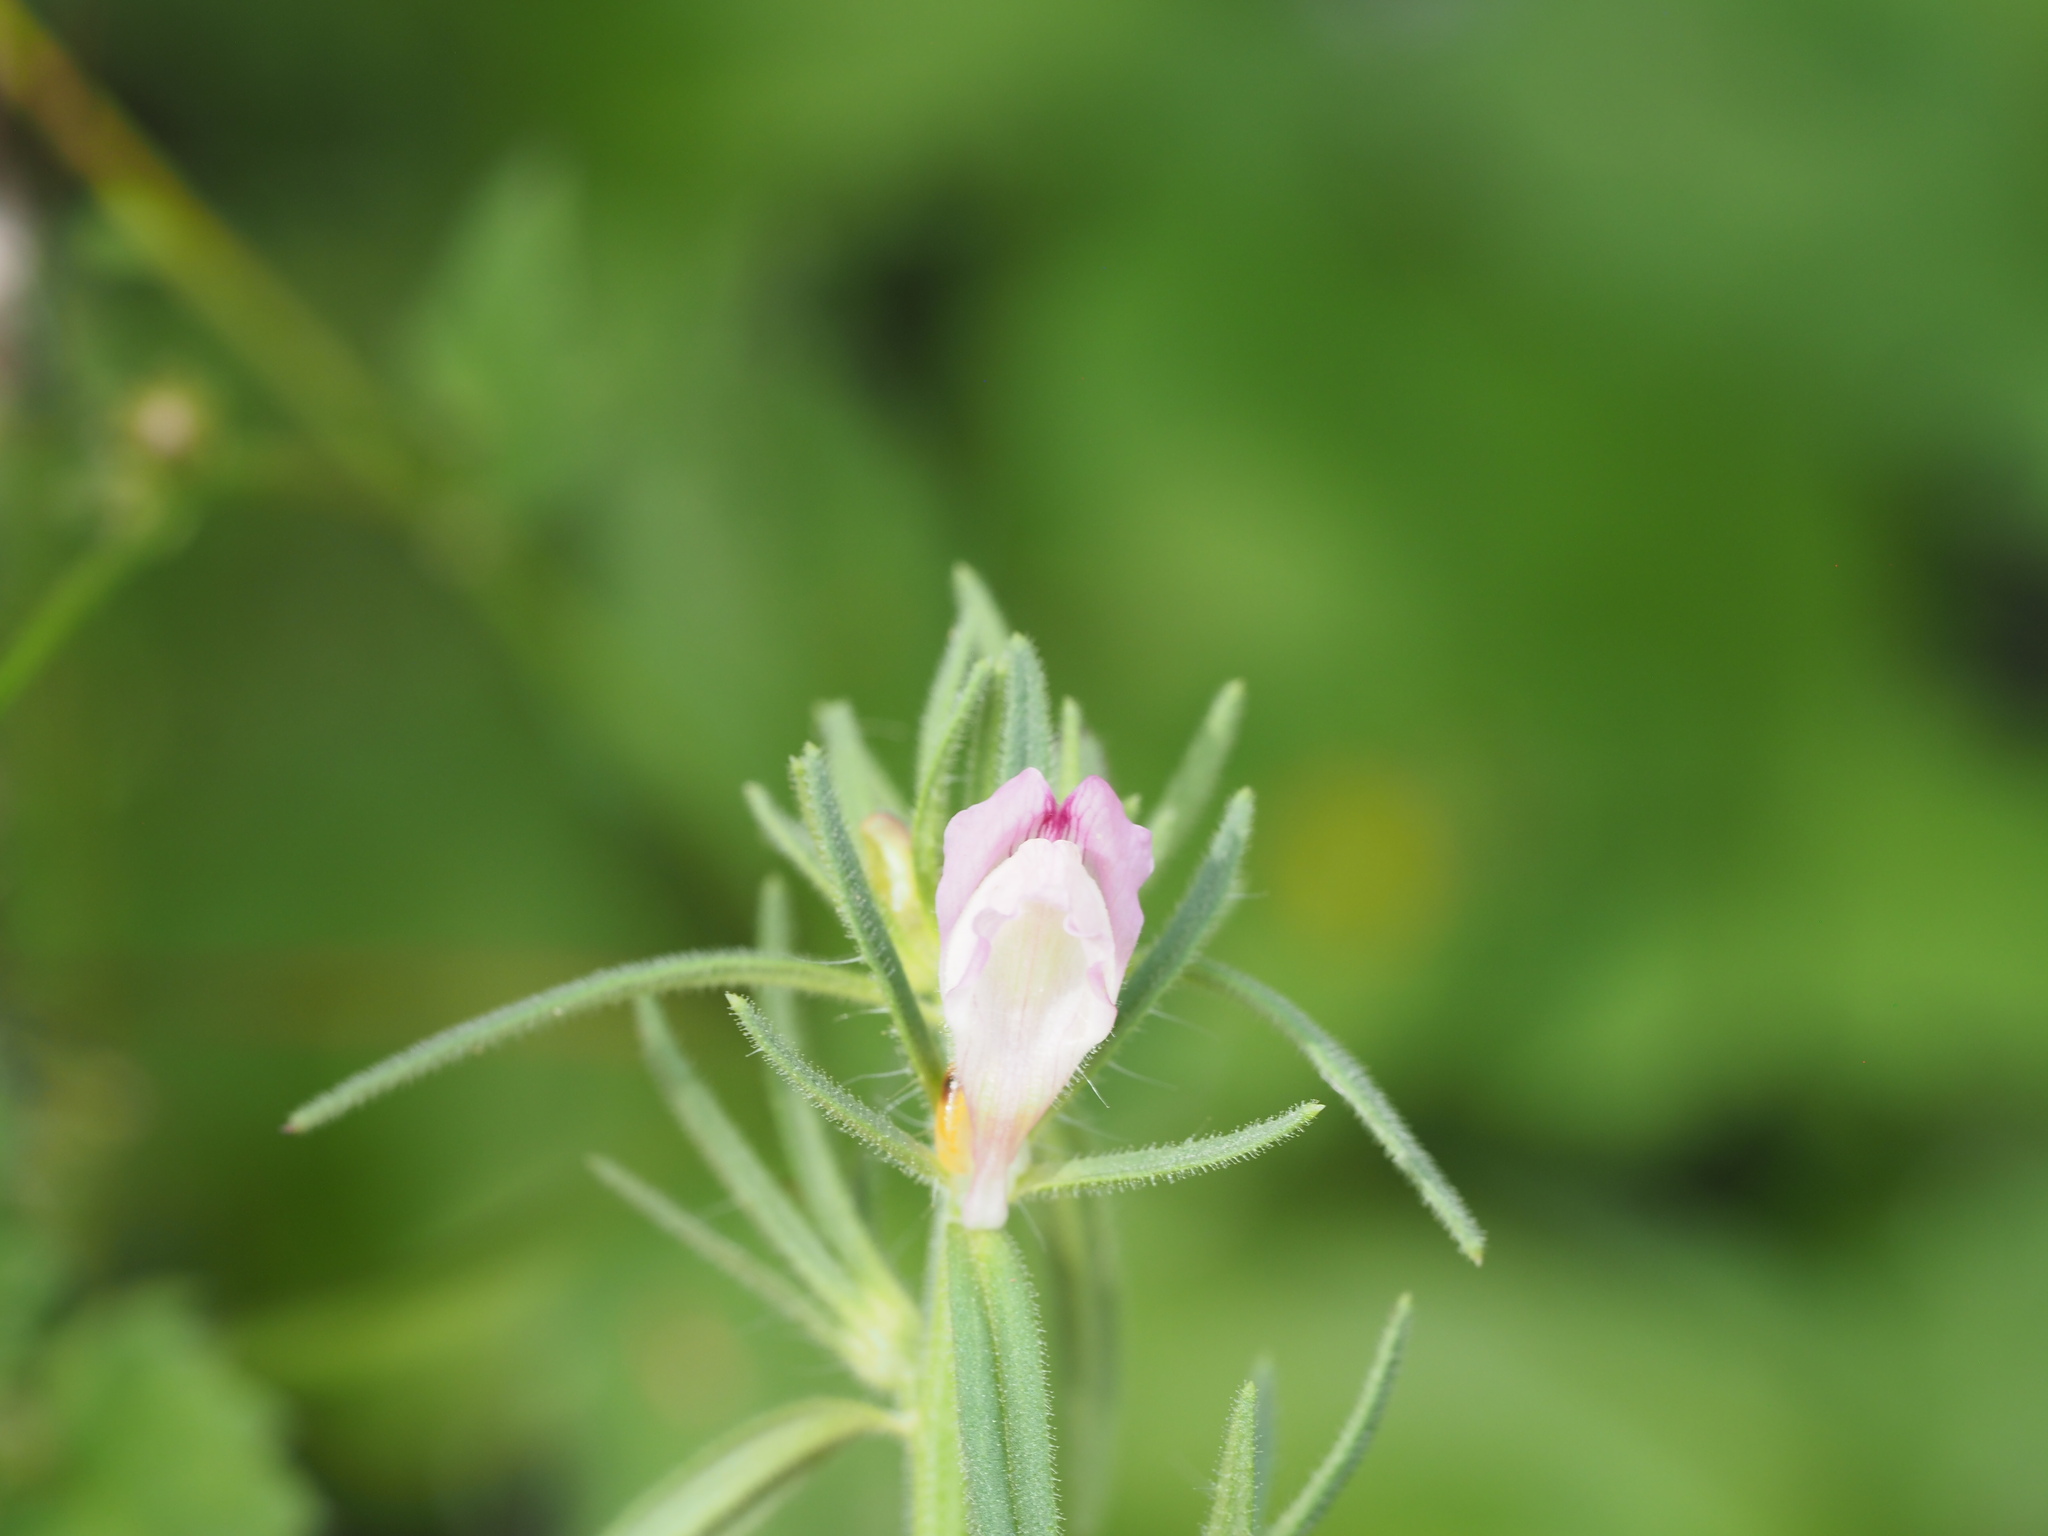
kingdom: Plantae
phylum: Tracheophyta
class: Magnoliopsida
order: Lamiales
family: Plantaginaceae
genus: Misopates
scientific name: Misopates orontium
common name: Weasel's-snout
